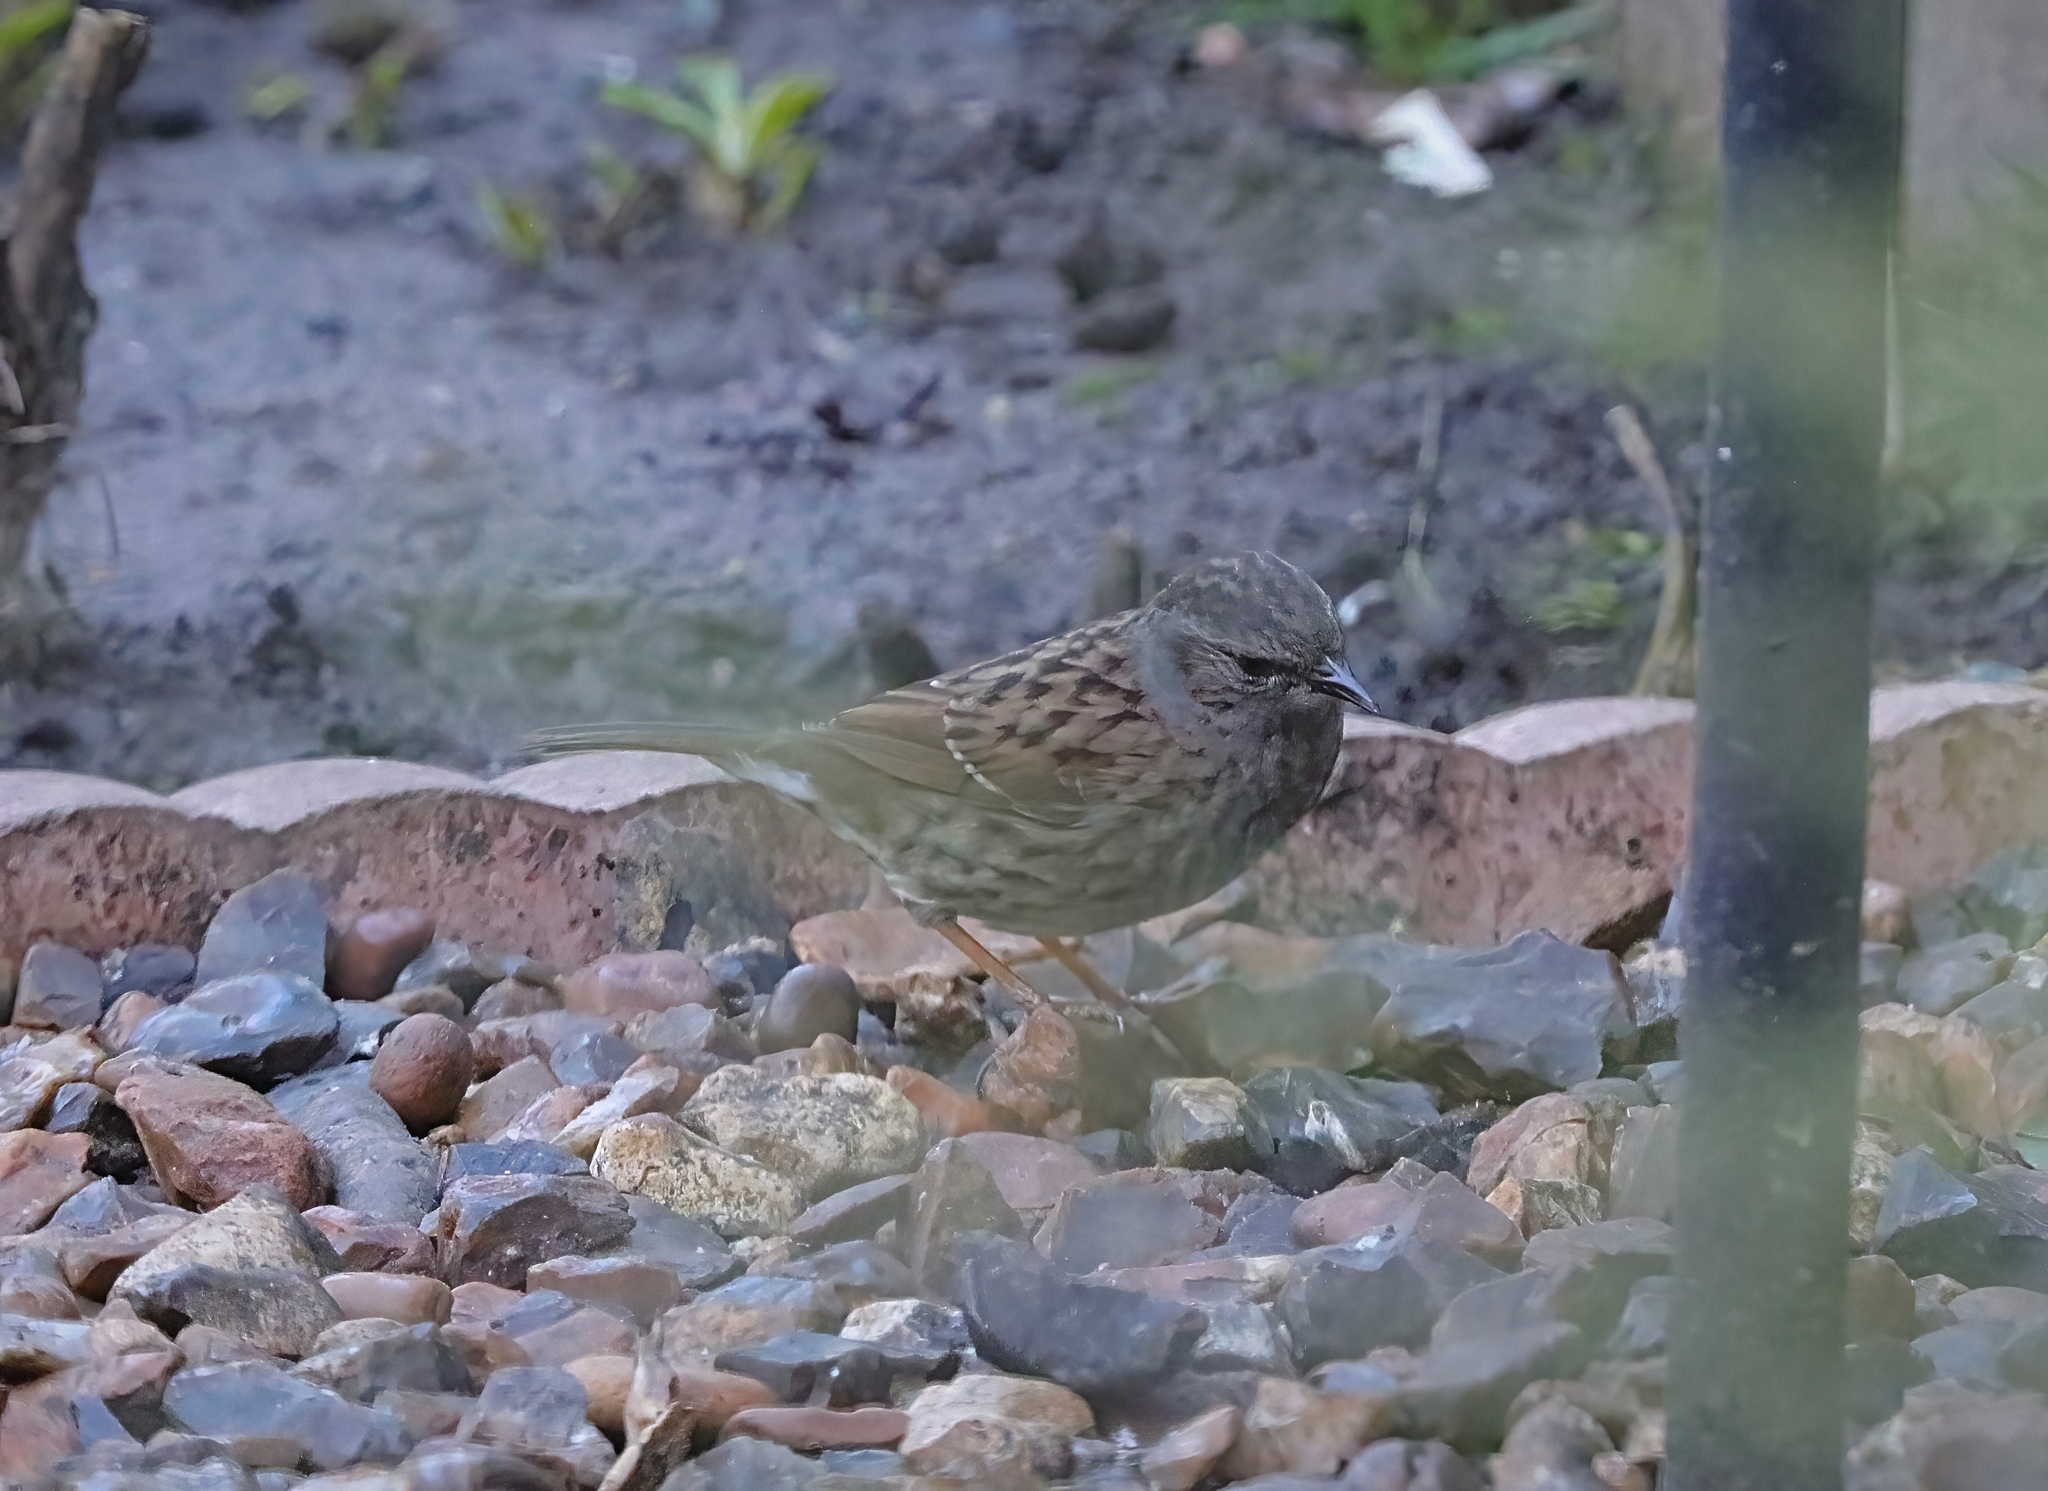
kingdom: Animalia
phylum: Chordata
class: Aves
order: Passeriformes
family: Prunellidae
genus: Prunella
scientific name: Prunella modularis
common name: Dunnock
